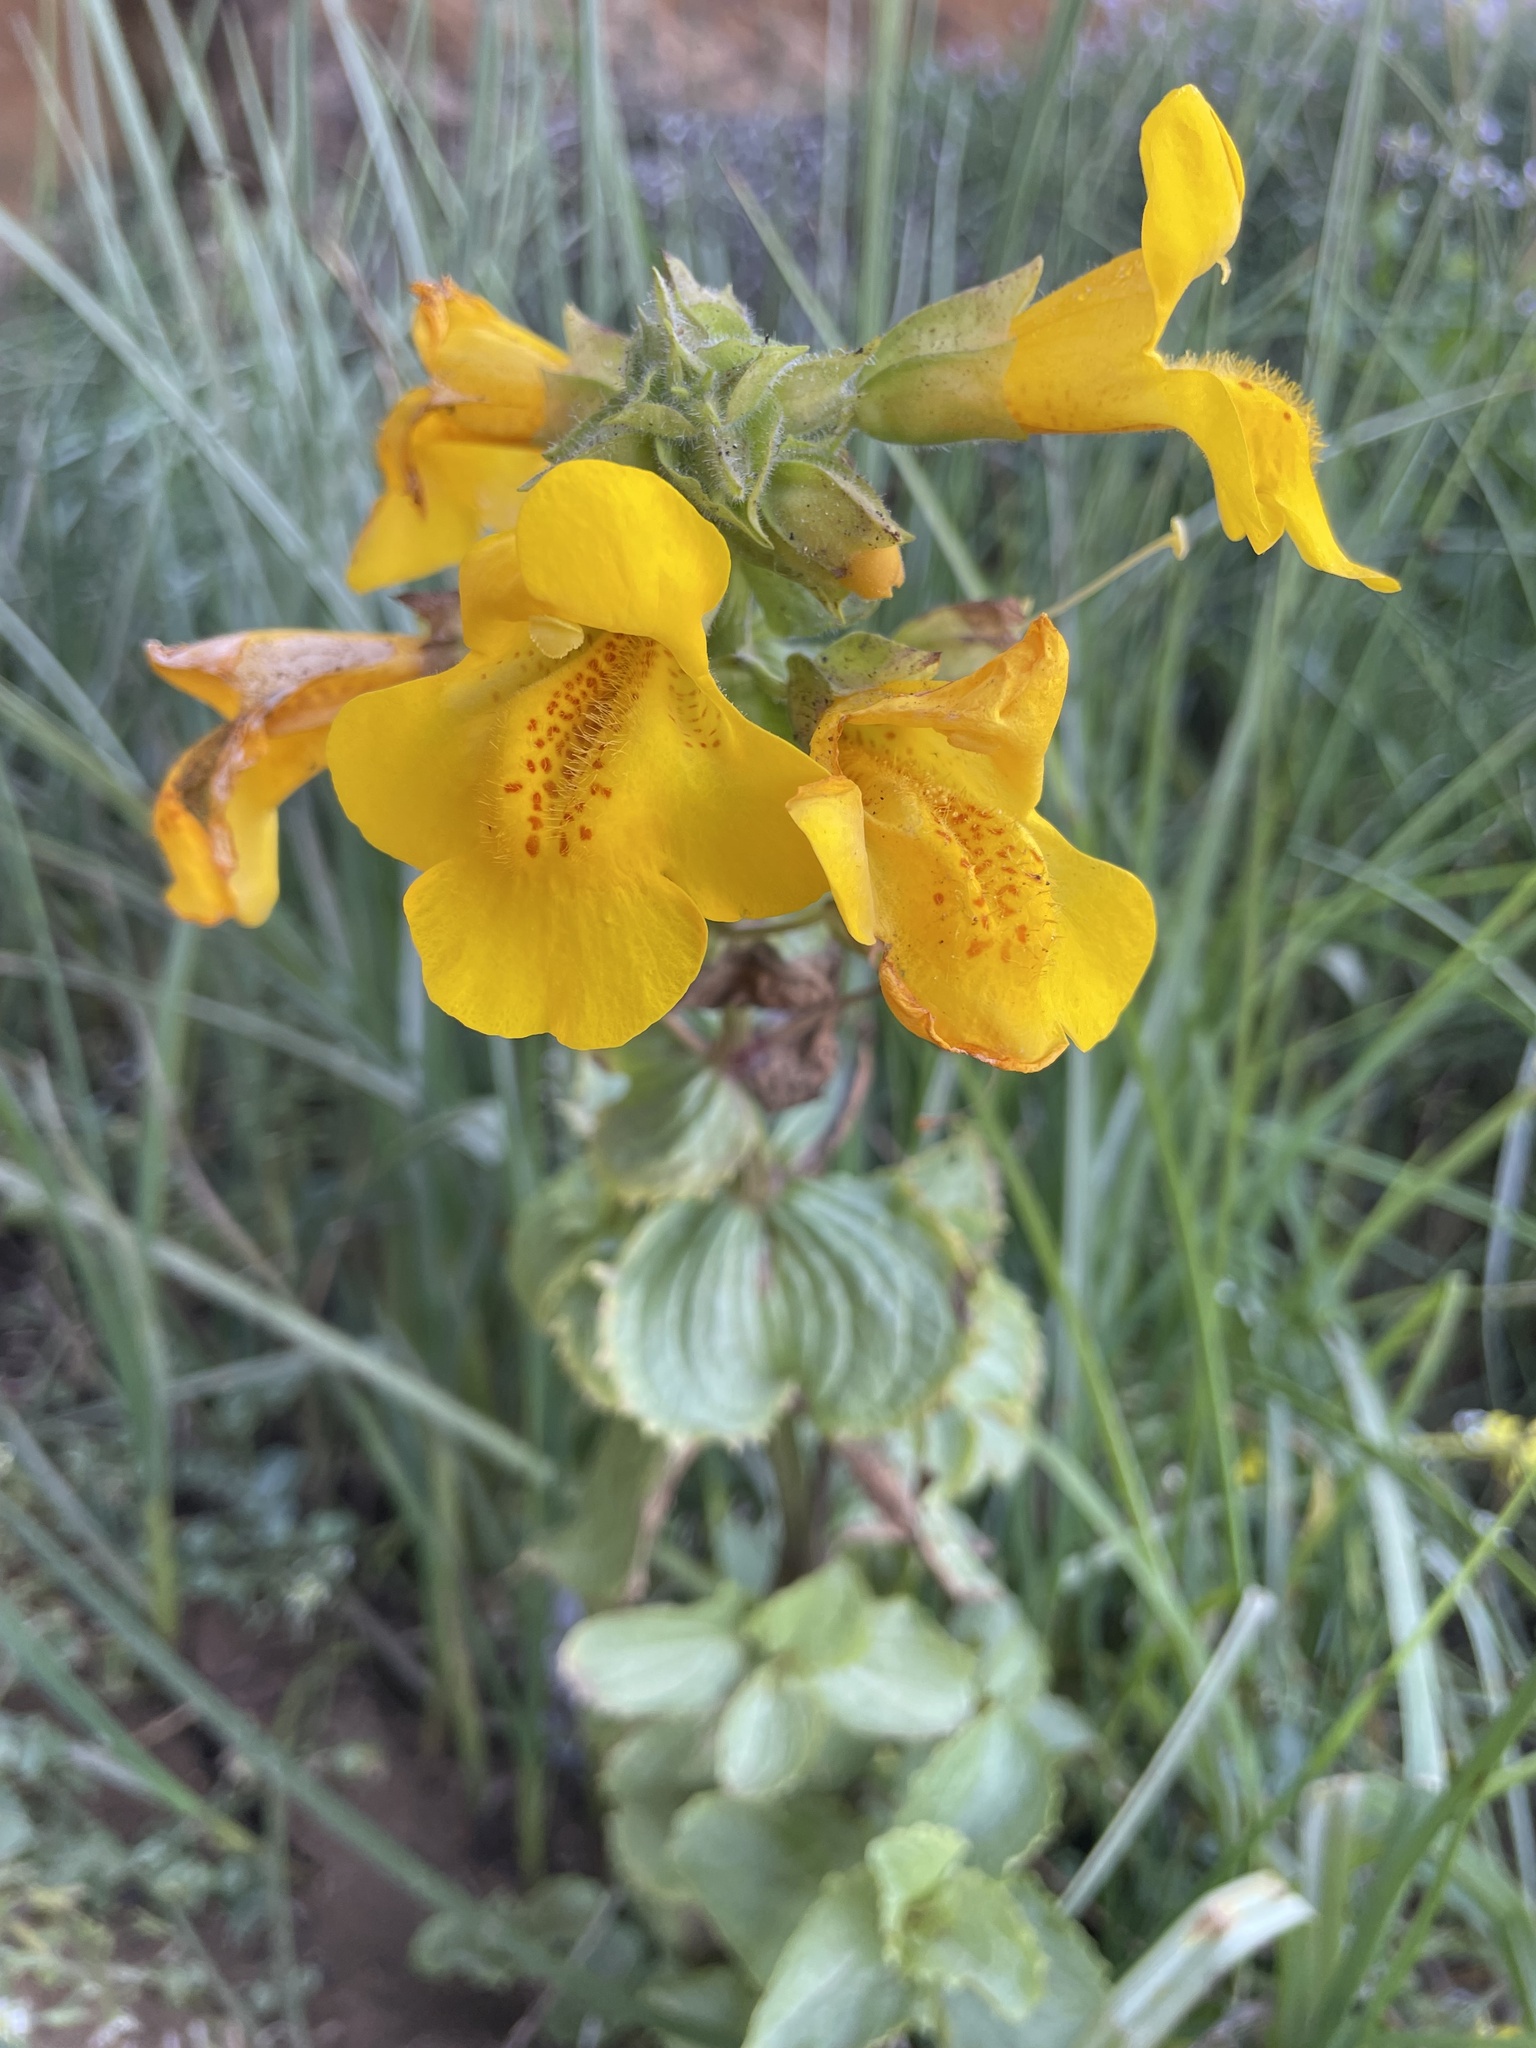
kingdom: Plantae
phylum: Tracheophyta
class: Magnoliopsida
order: Lamiales
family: Phrymaceae
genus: Erythranthe
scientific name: Erythranthe grandis
